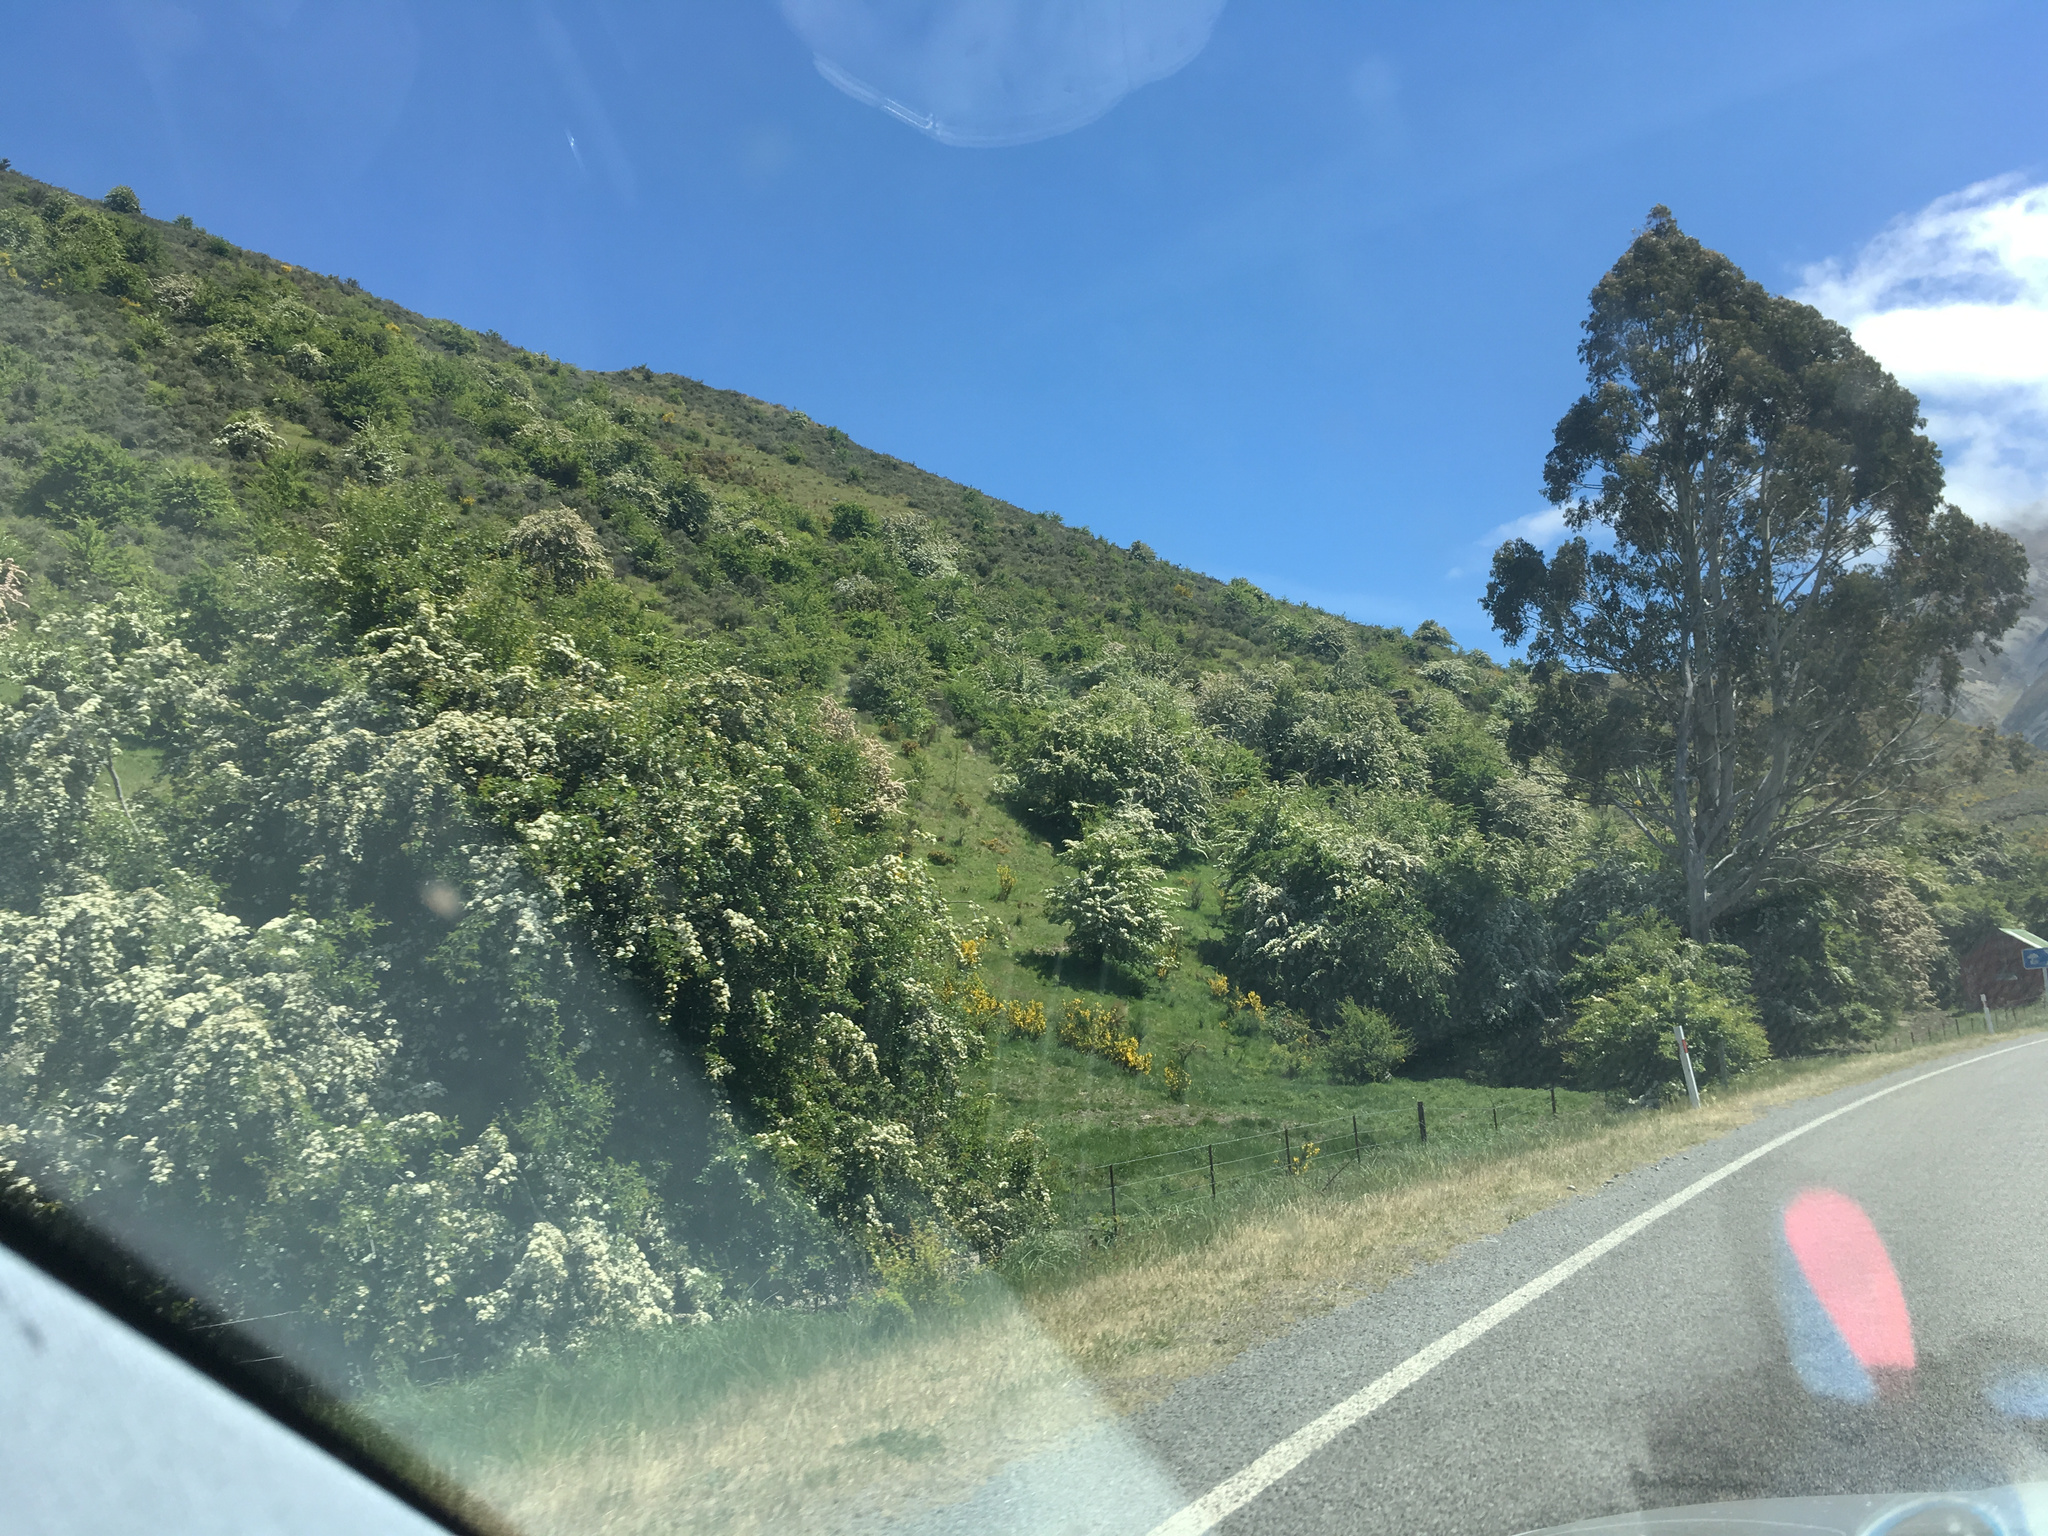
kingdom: Plantae
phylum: Tracheophyta
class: Magnoliopsida
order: Rosales
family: Rosaceae
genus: Crataegus
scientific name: Crataegus monogyna
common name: Hawthorn
